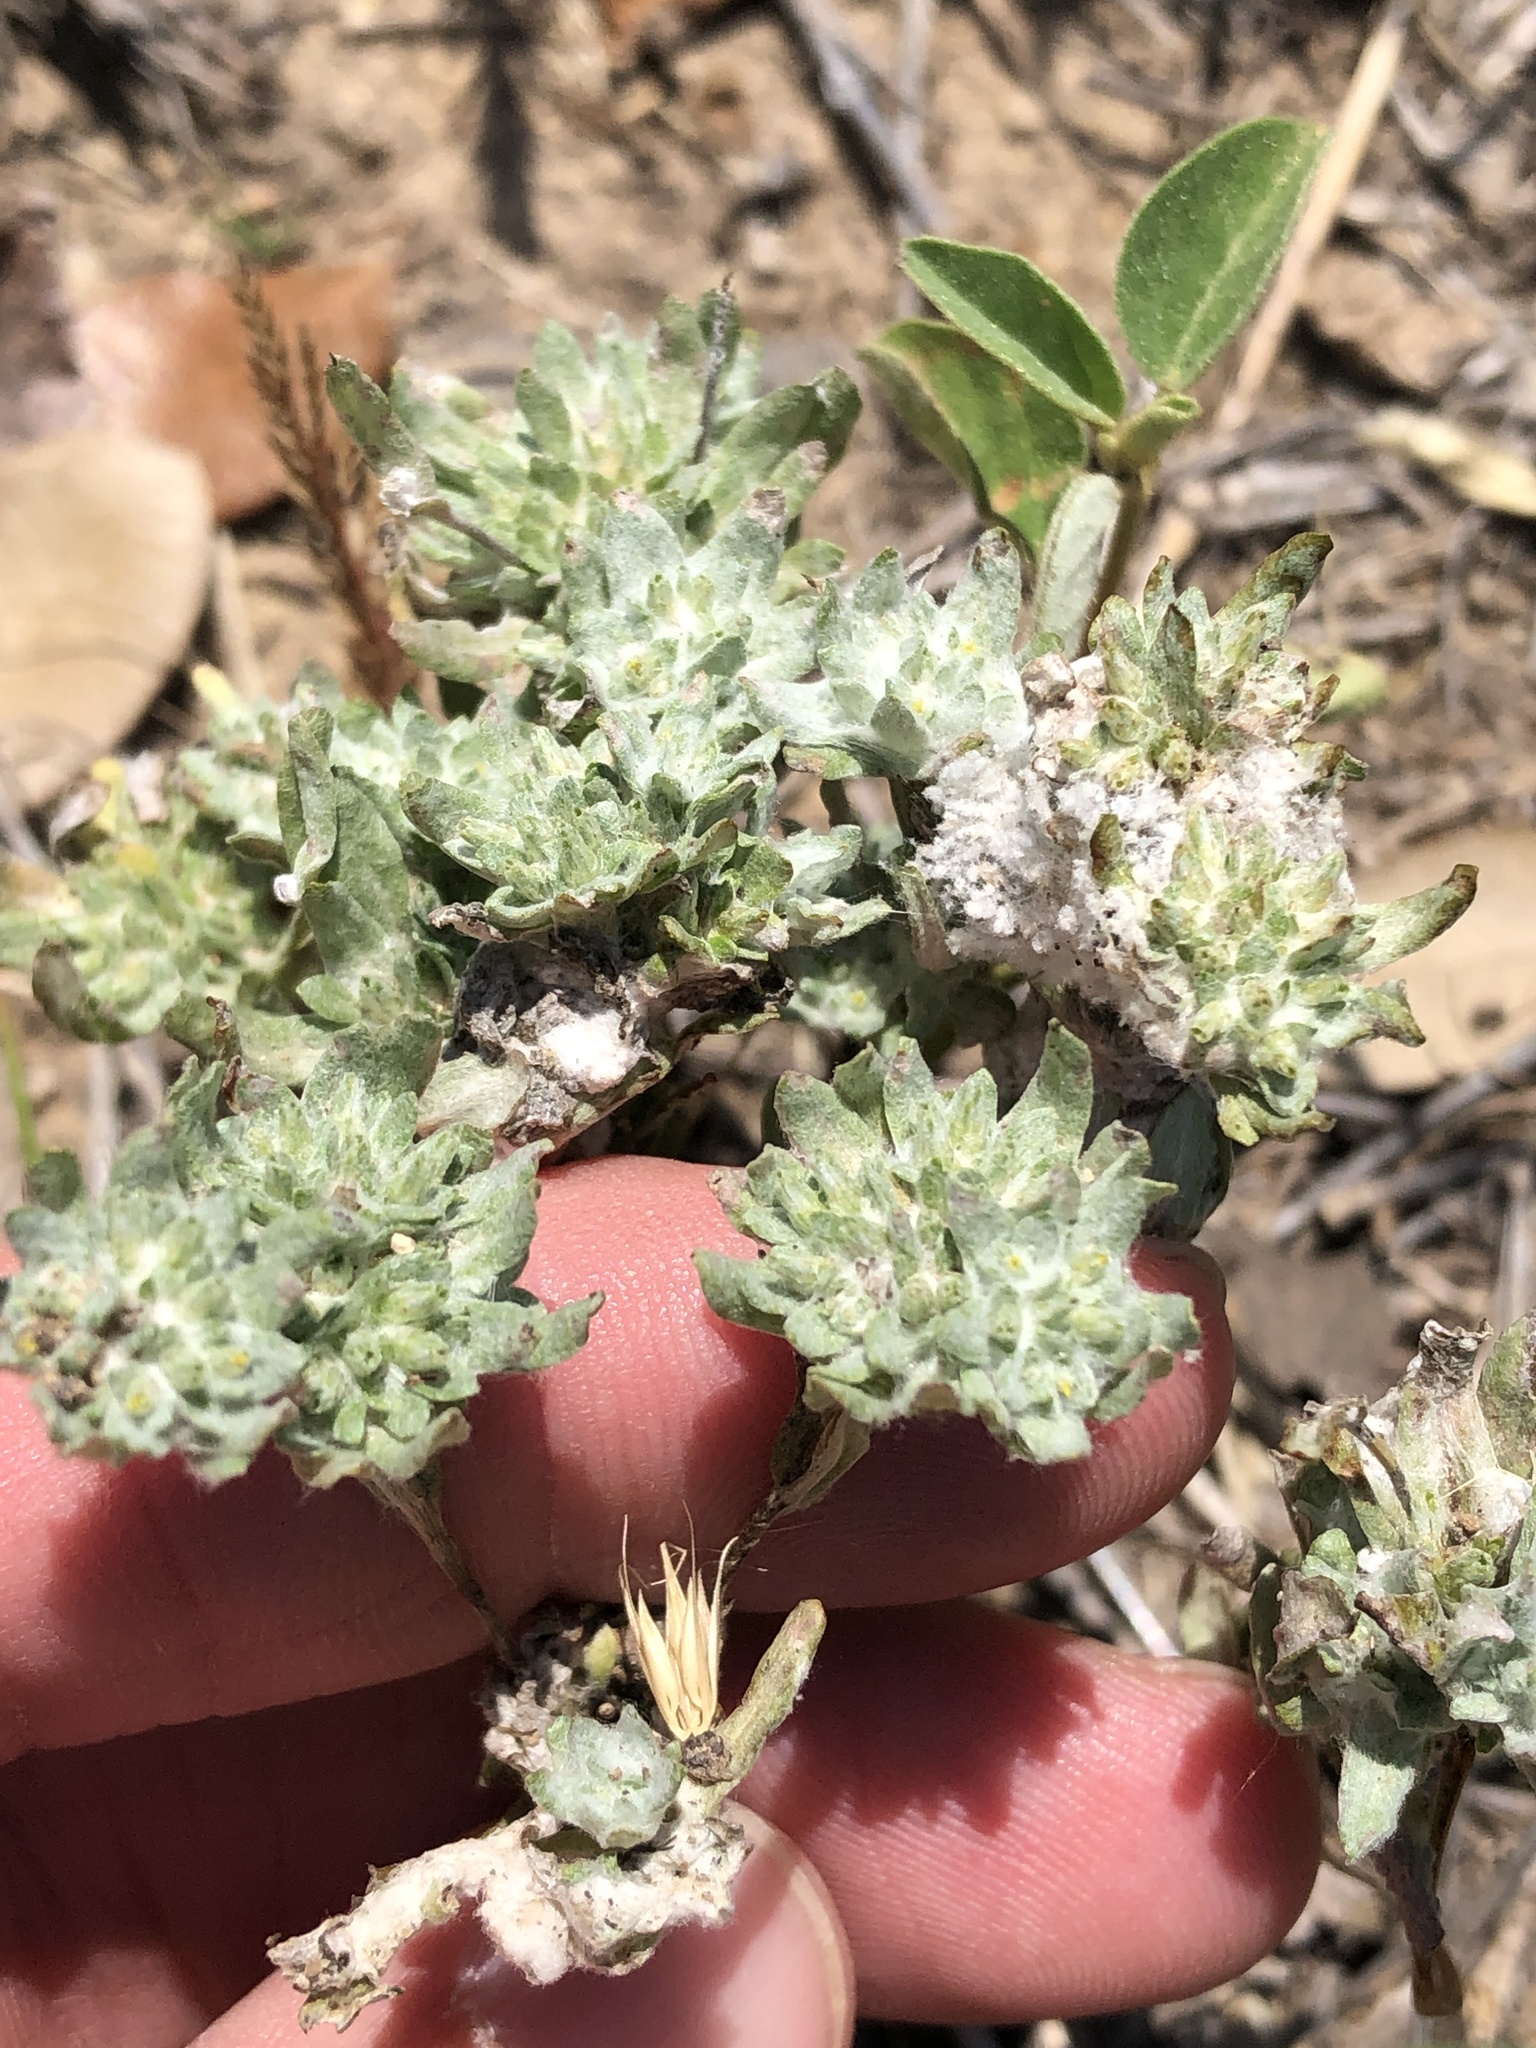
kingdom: Plantae
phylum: Tracheophyta
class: Magnoliopsida
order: Asterales
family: Asteraceae
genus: Diaperia
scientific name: Diaperia prolifera
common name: Big-head rabbit-tobacco
